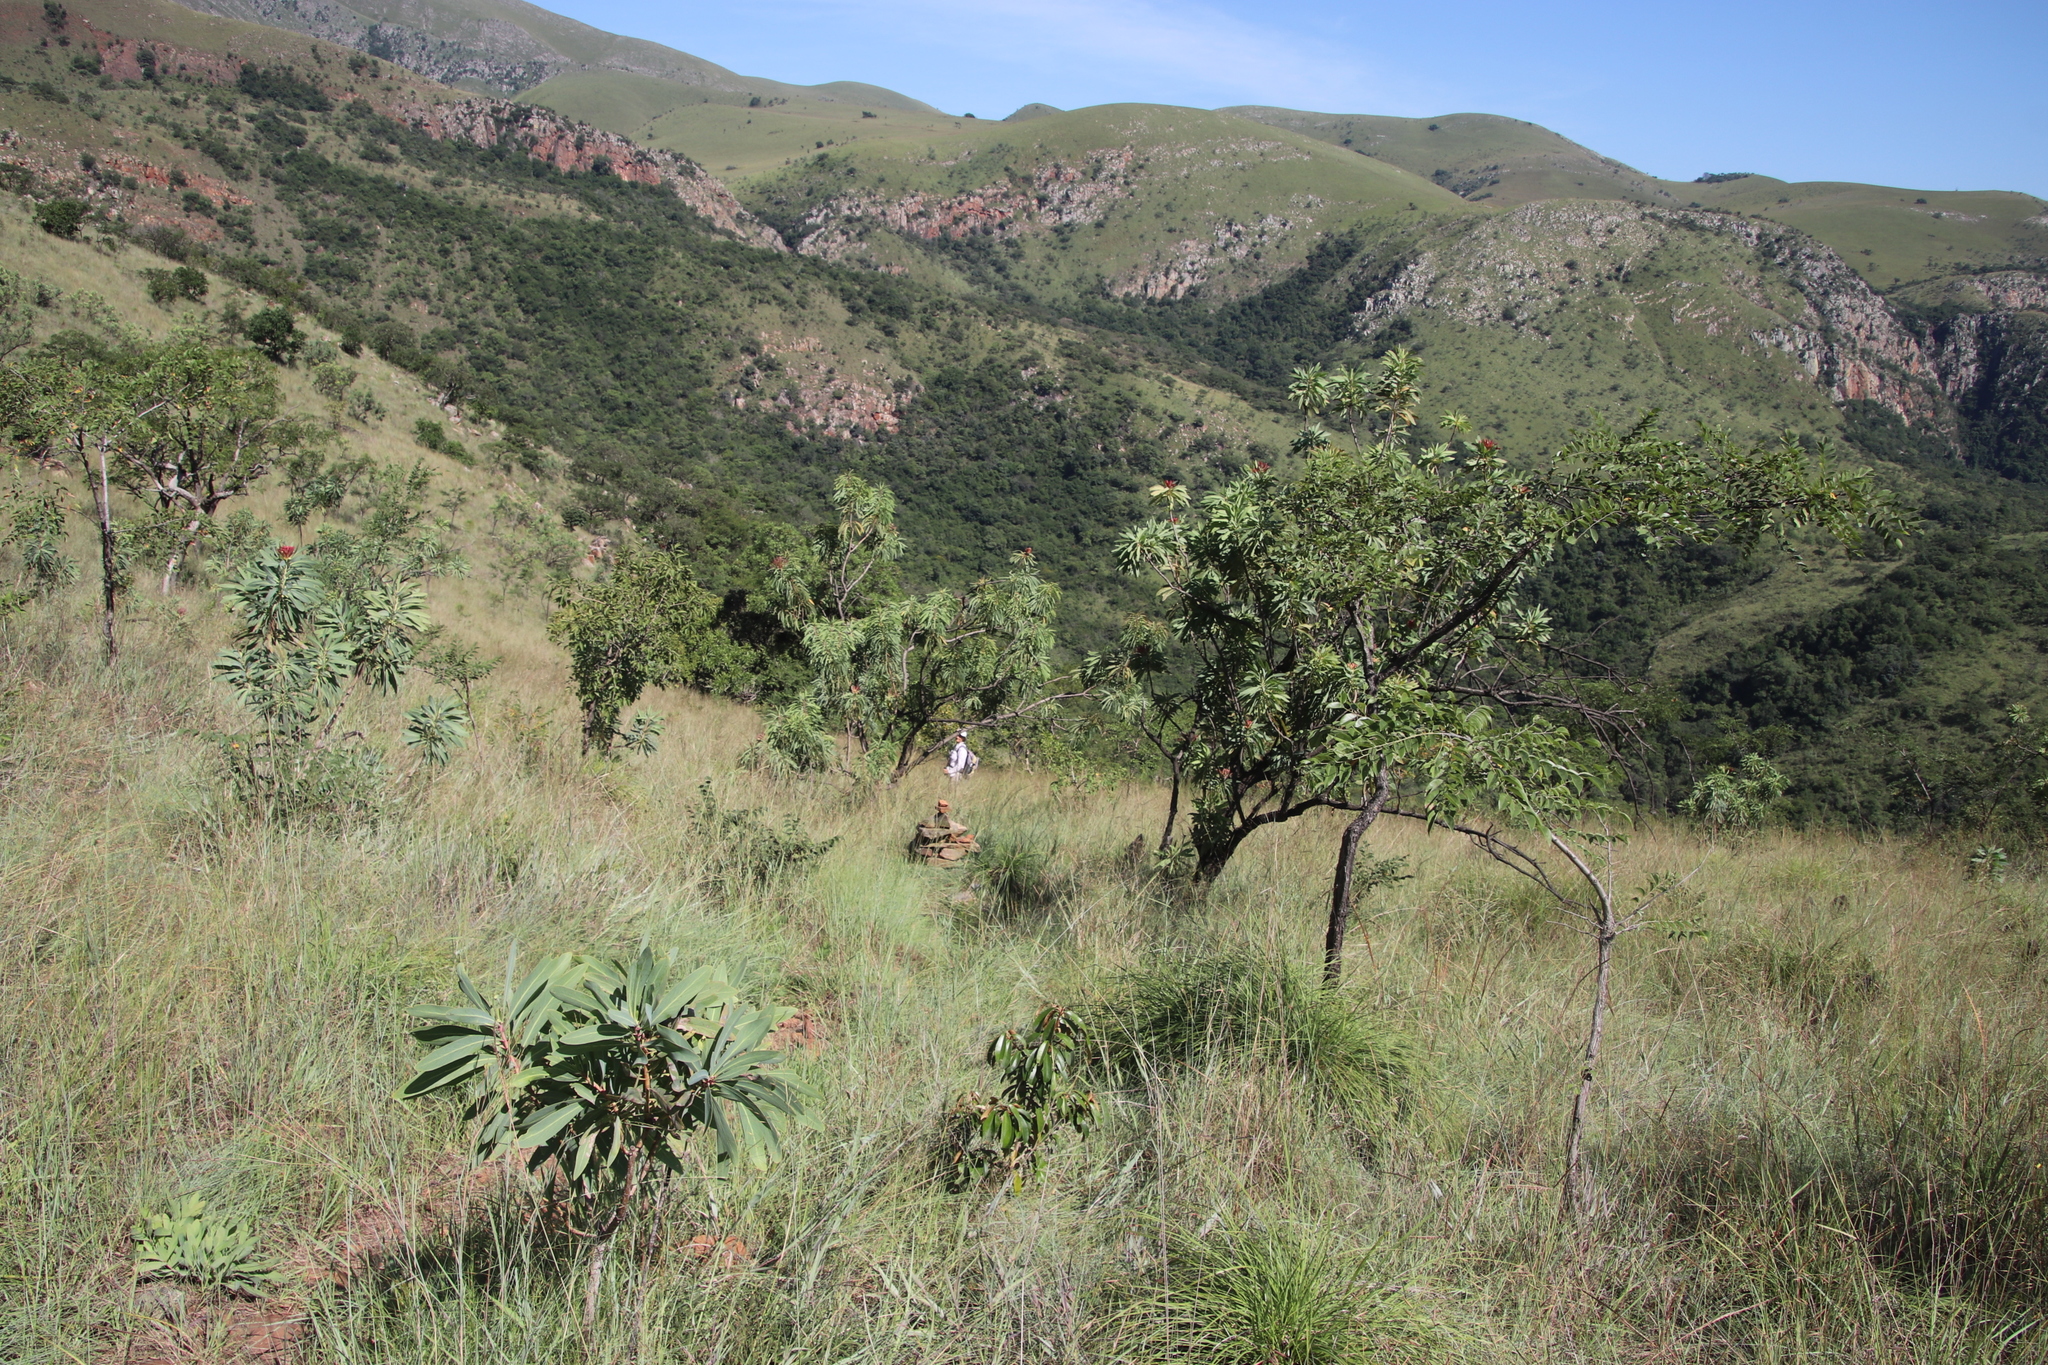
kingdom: Plantae
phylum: Tracheophyta
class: Magnoliopsida
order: Proteales
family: Proteaceae
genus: Protea
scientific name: Protea caffra
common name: Common sugarbush
